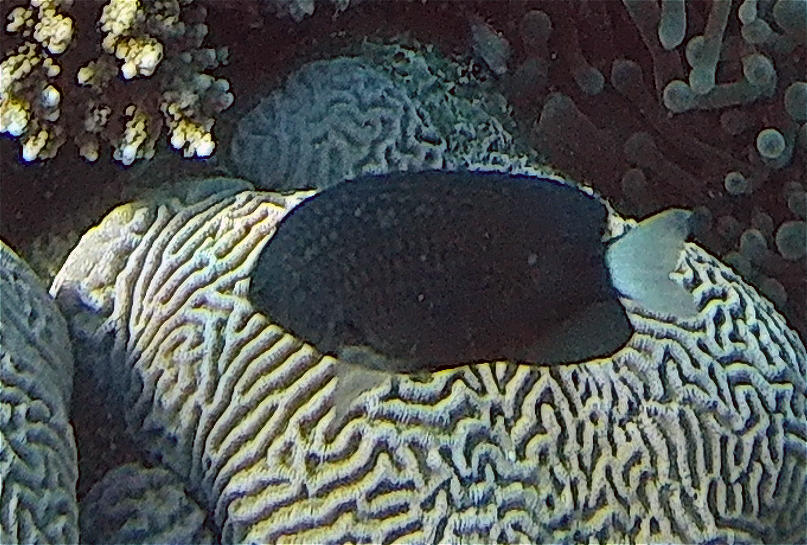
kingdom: Animalia
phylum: Chordata
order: Perciformes
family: Pomacentridae
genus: Pomacentrus
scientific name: Pomacentrus trichrourus
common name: Paletail damsel
